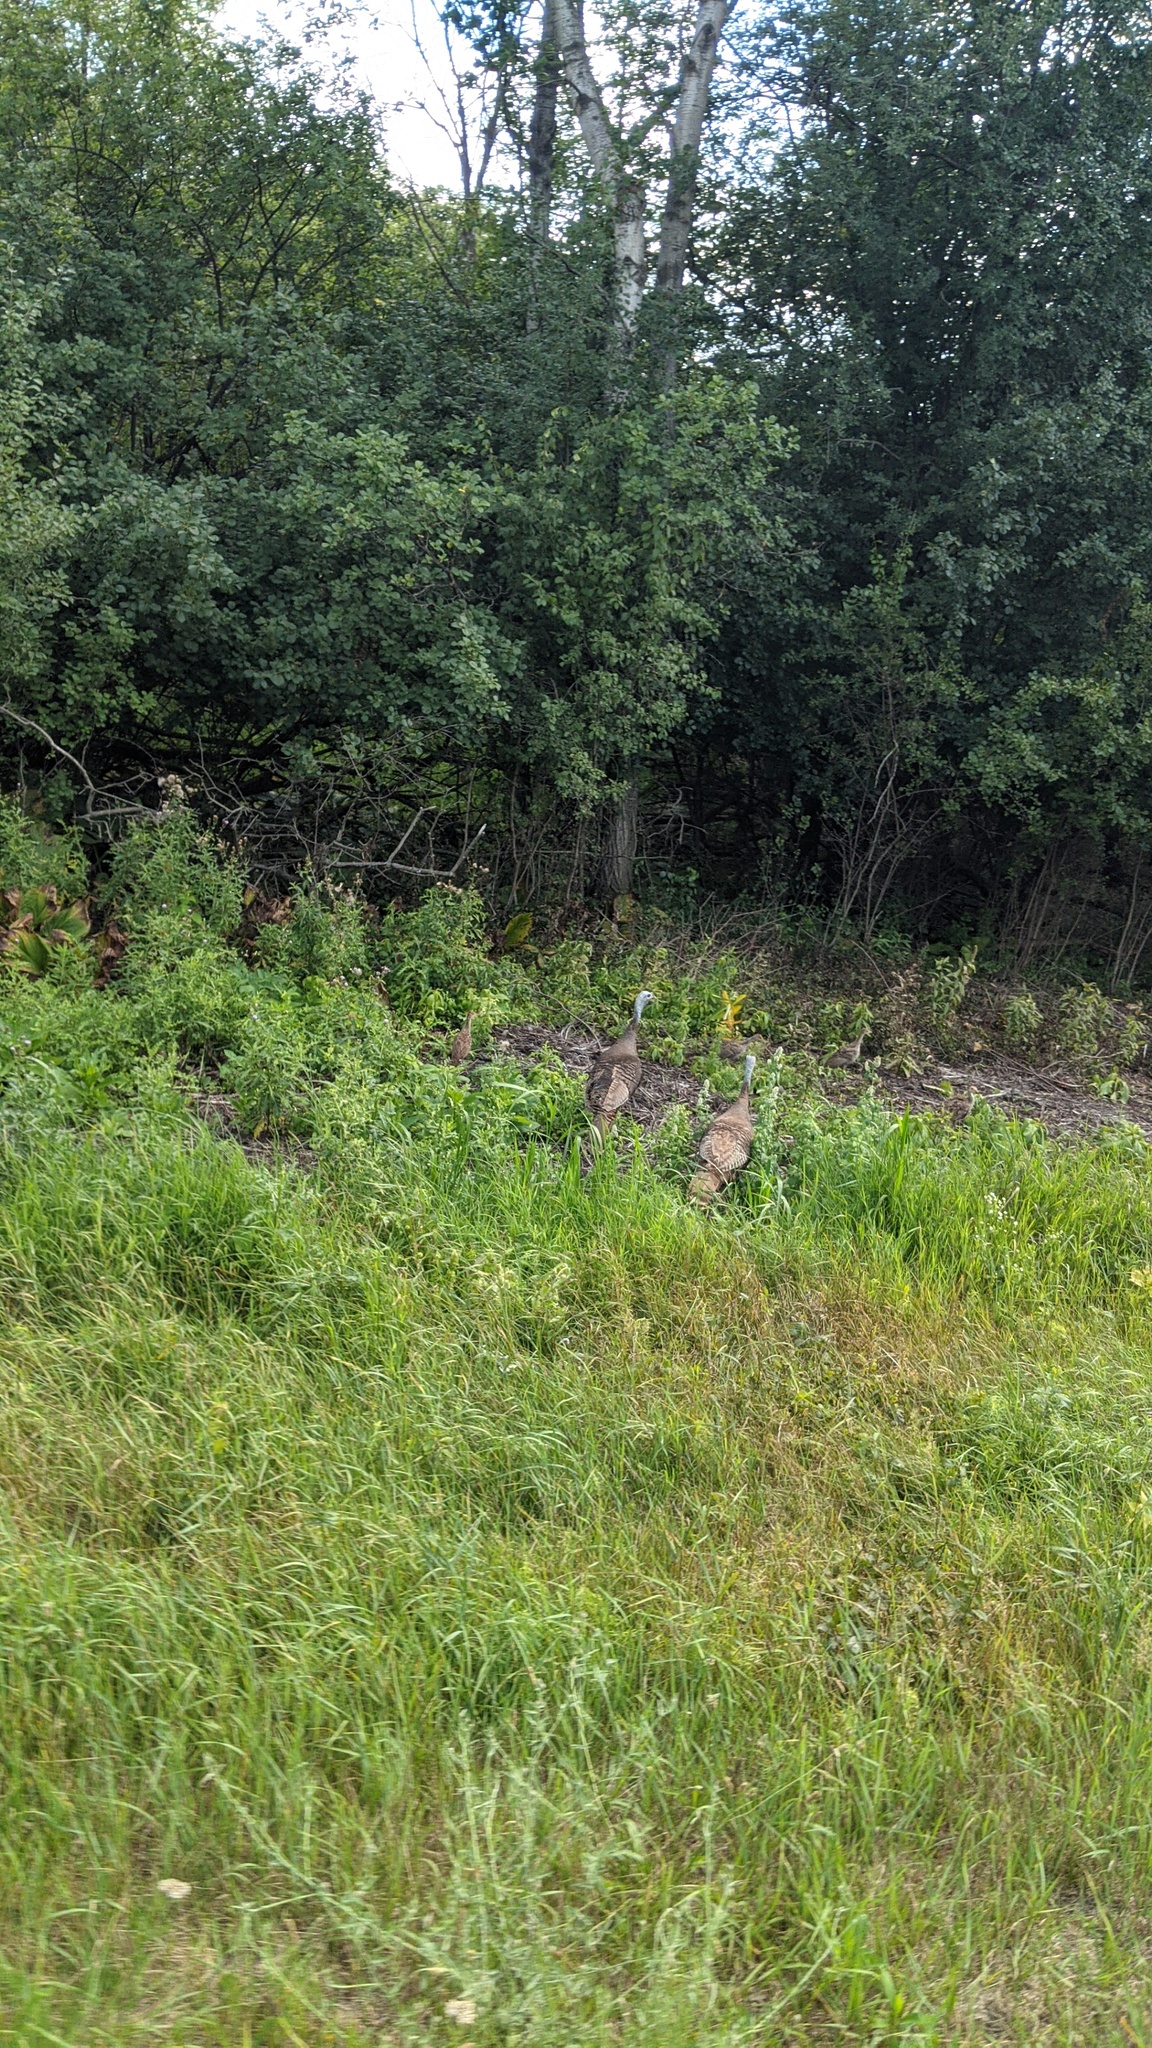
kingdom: Animalia
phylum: Chordata
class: Aves
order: Galliformes
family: Phasianidae
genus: Meleagris
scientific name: Meleagris gallopavo
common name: Wild turkey
